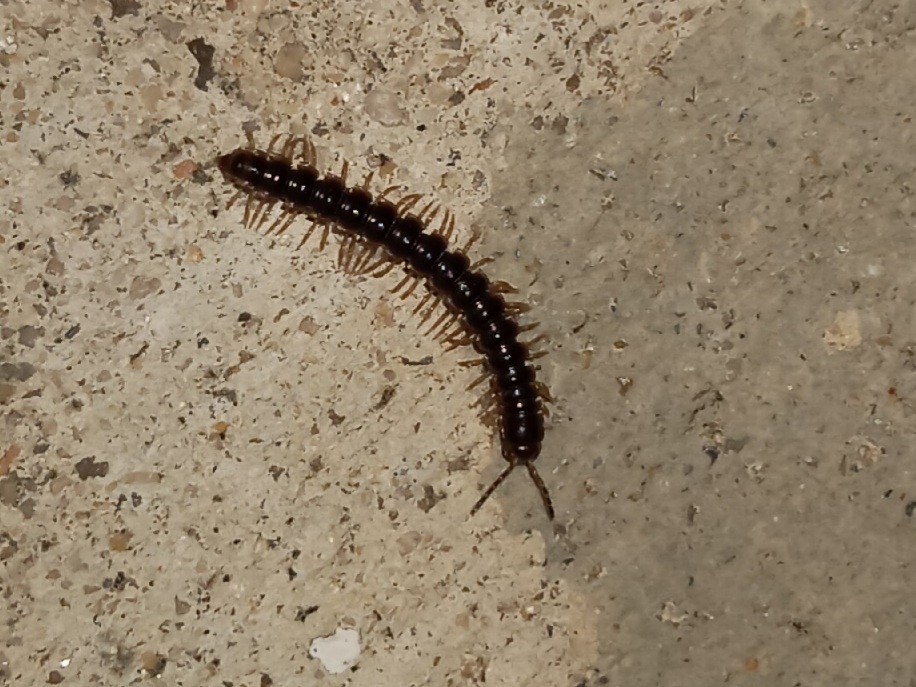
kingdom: Animalia
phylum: Arthropoda
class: Diplopoda
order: Polydesmida
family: Paradoxosomatidae
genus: Oxidus
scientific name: Oxidus gracilis
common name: Greenhouse millipede
